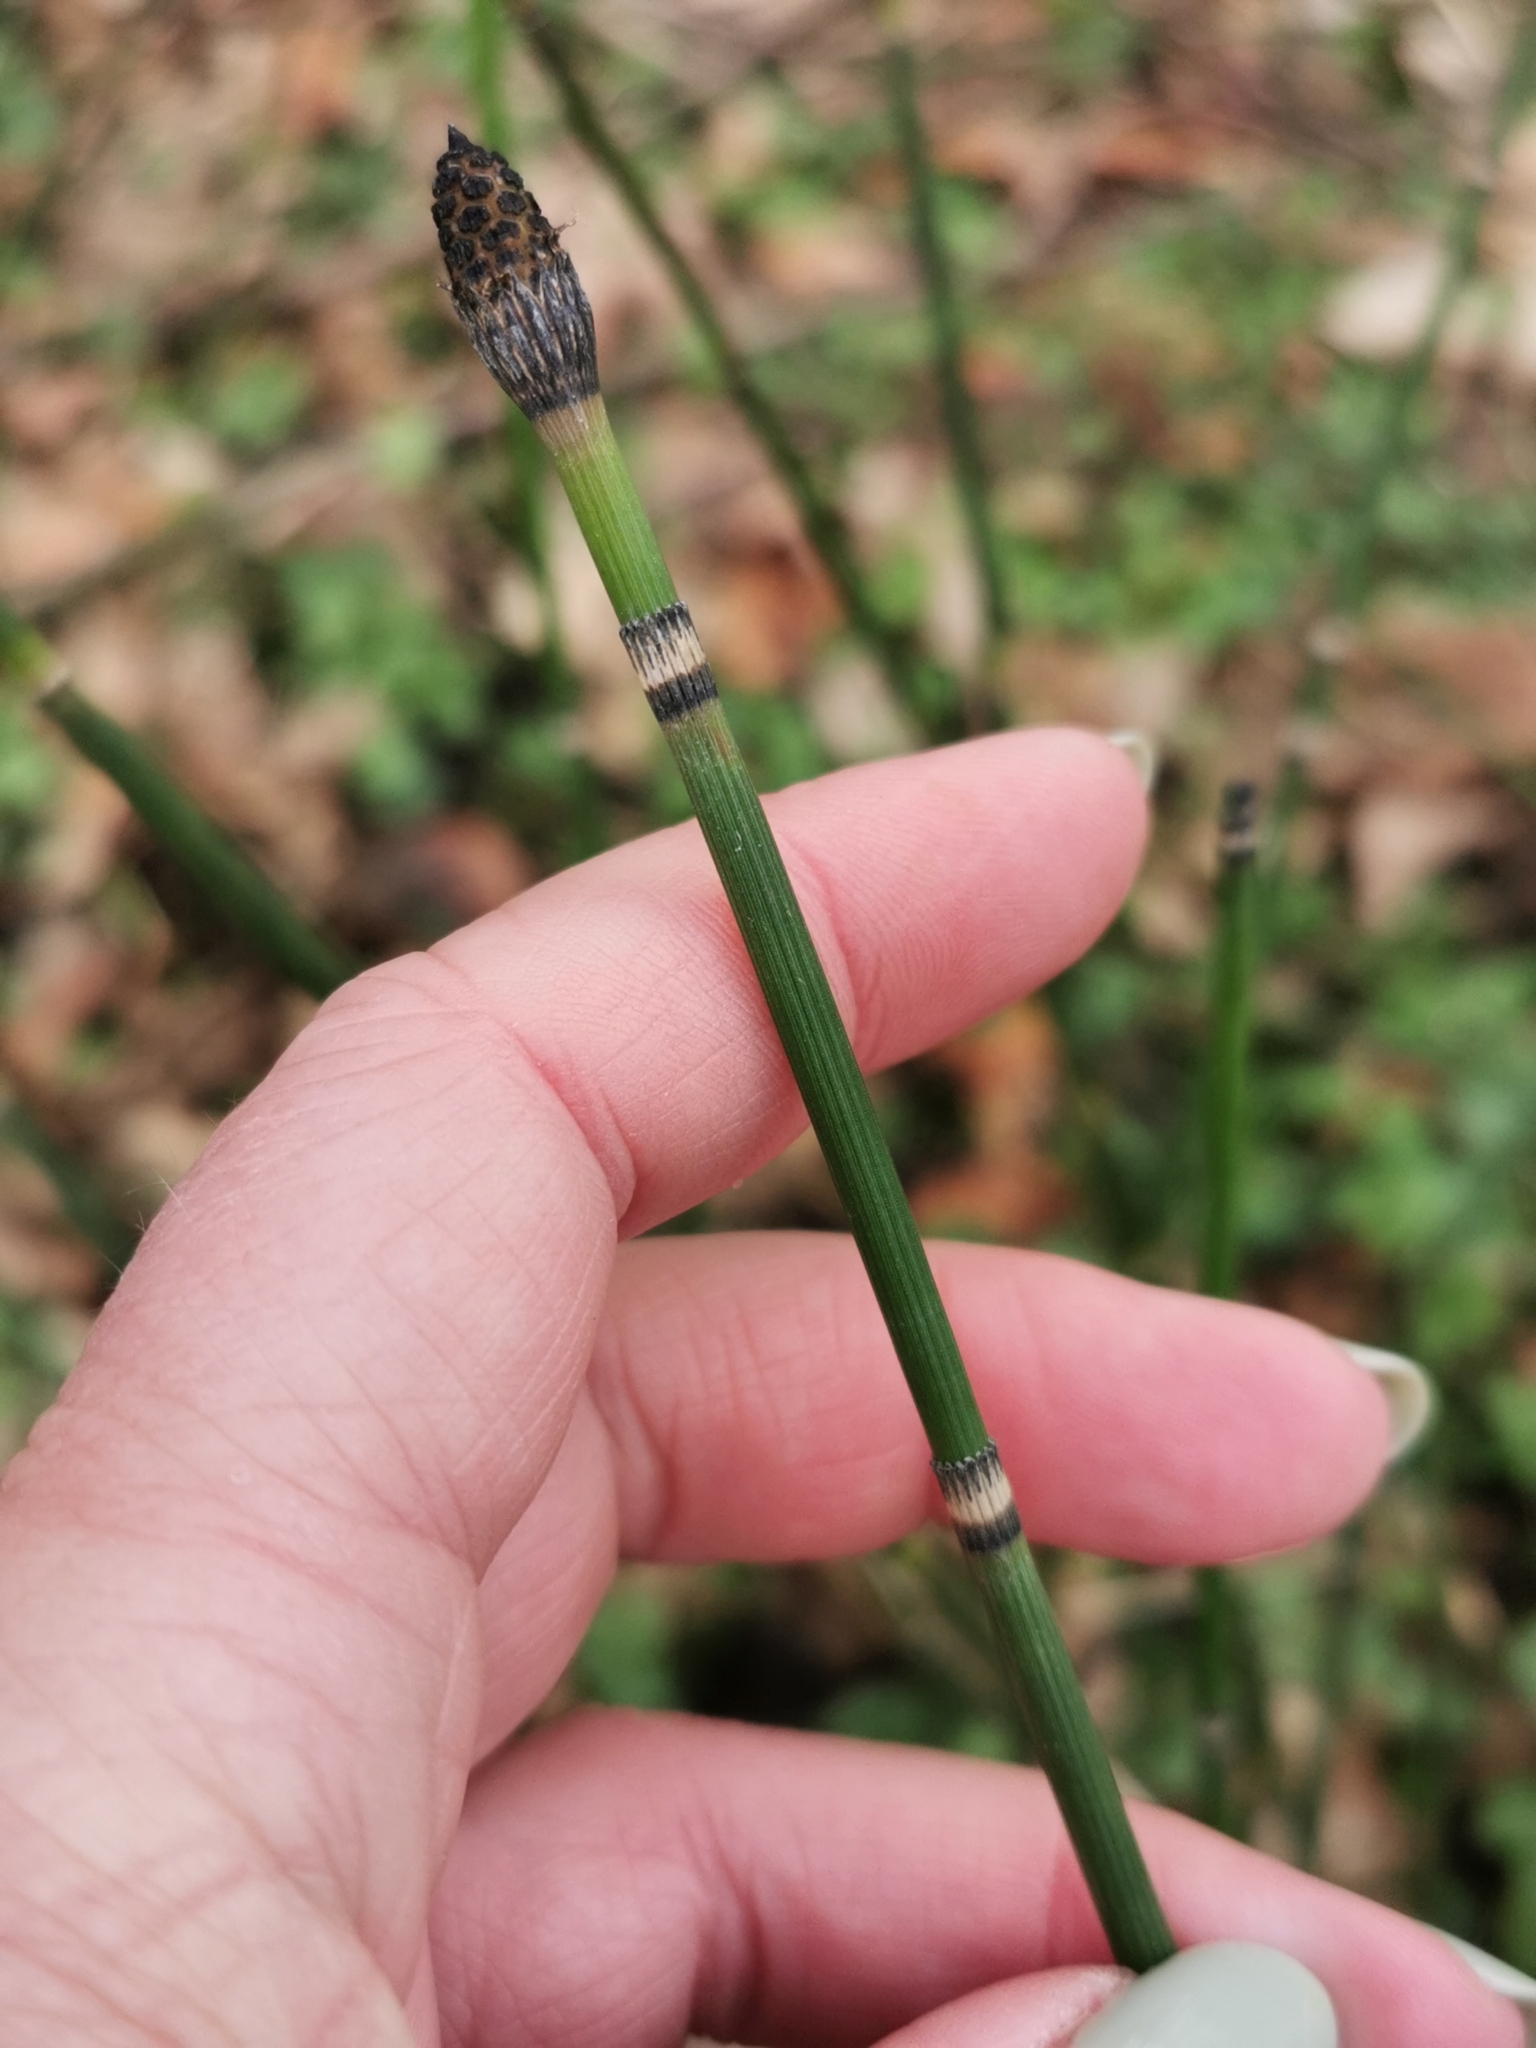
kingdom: Plantae
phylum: Tracheophyta
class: Polypodiopsida
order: Equisetales
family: Equisetaceae
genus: Equisetum
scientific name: Equisetum hyemale
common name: Rough horsetail
